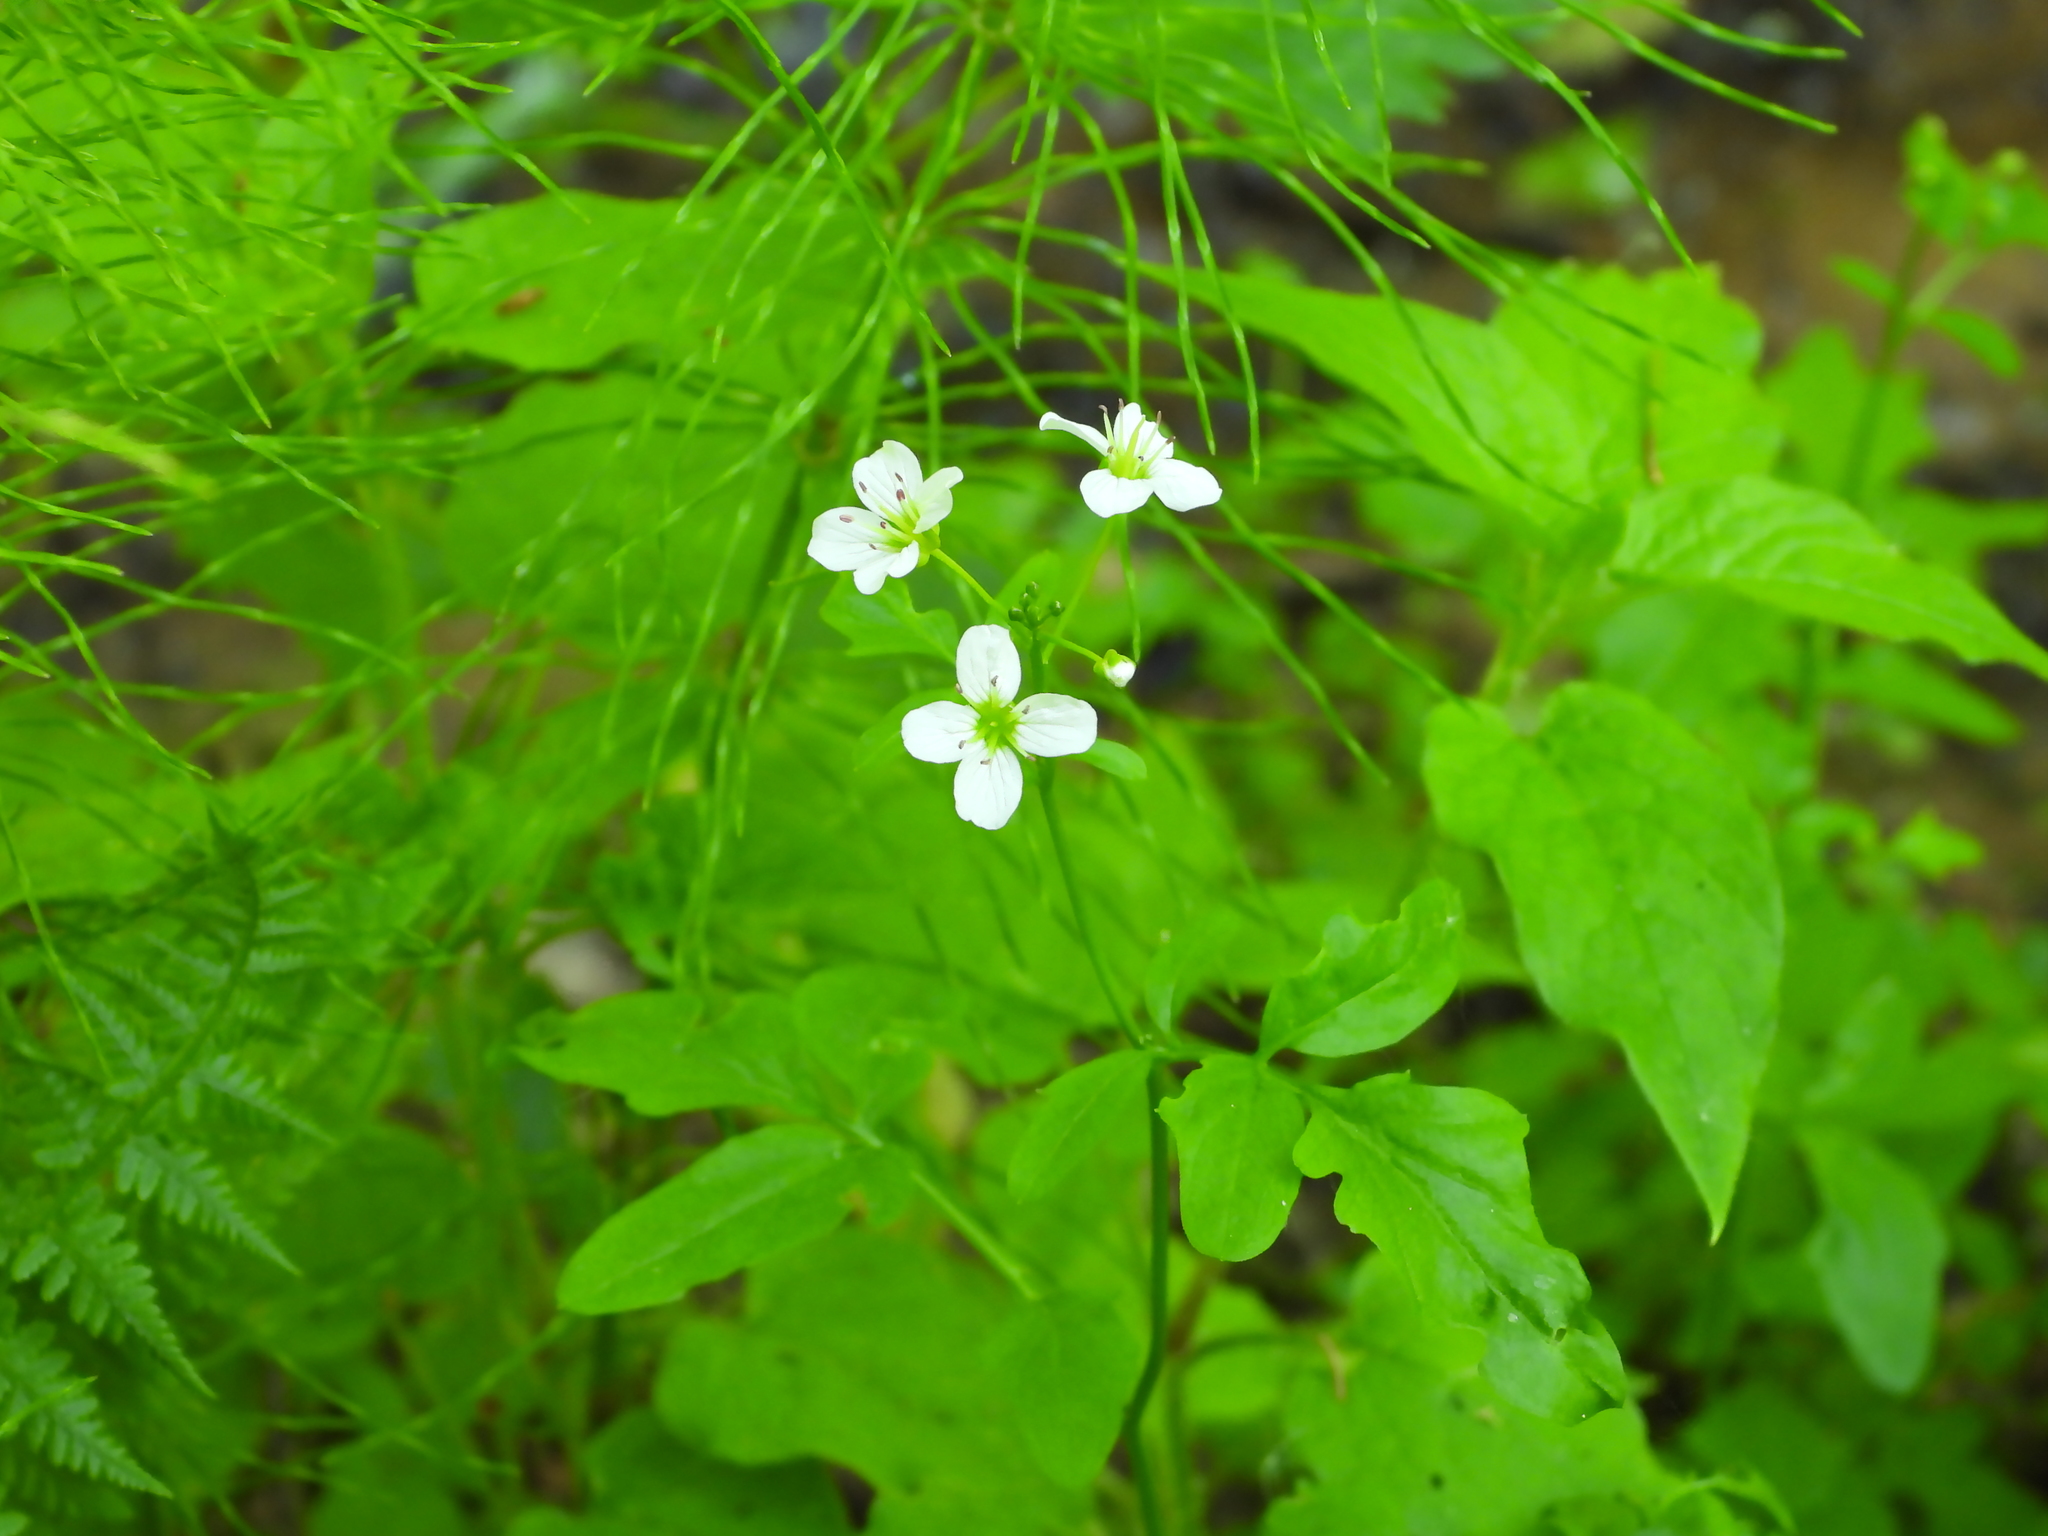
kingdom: Plantae
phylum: Tracheophyta
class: Magnoliopsida
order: Brassicales
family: Brassicaceae
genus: Cardamine
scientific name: Cardamine amara
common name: Large bitter-cress
